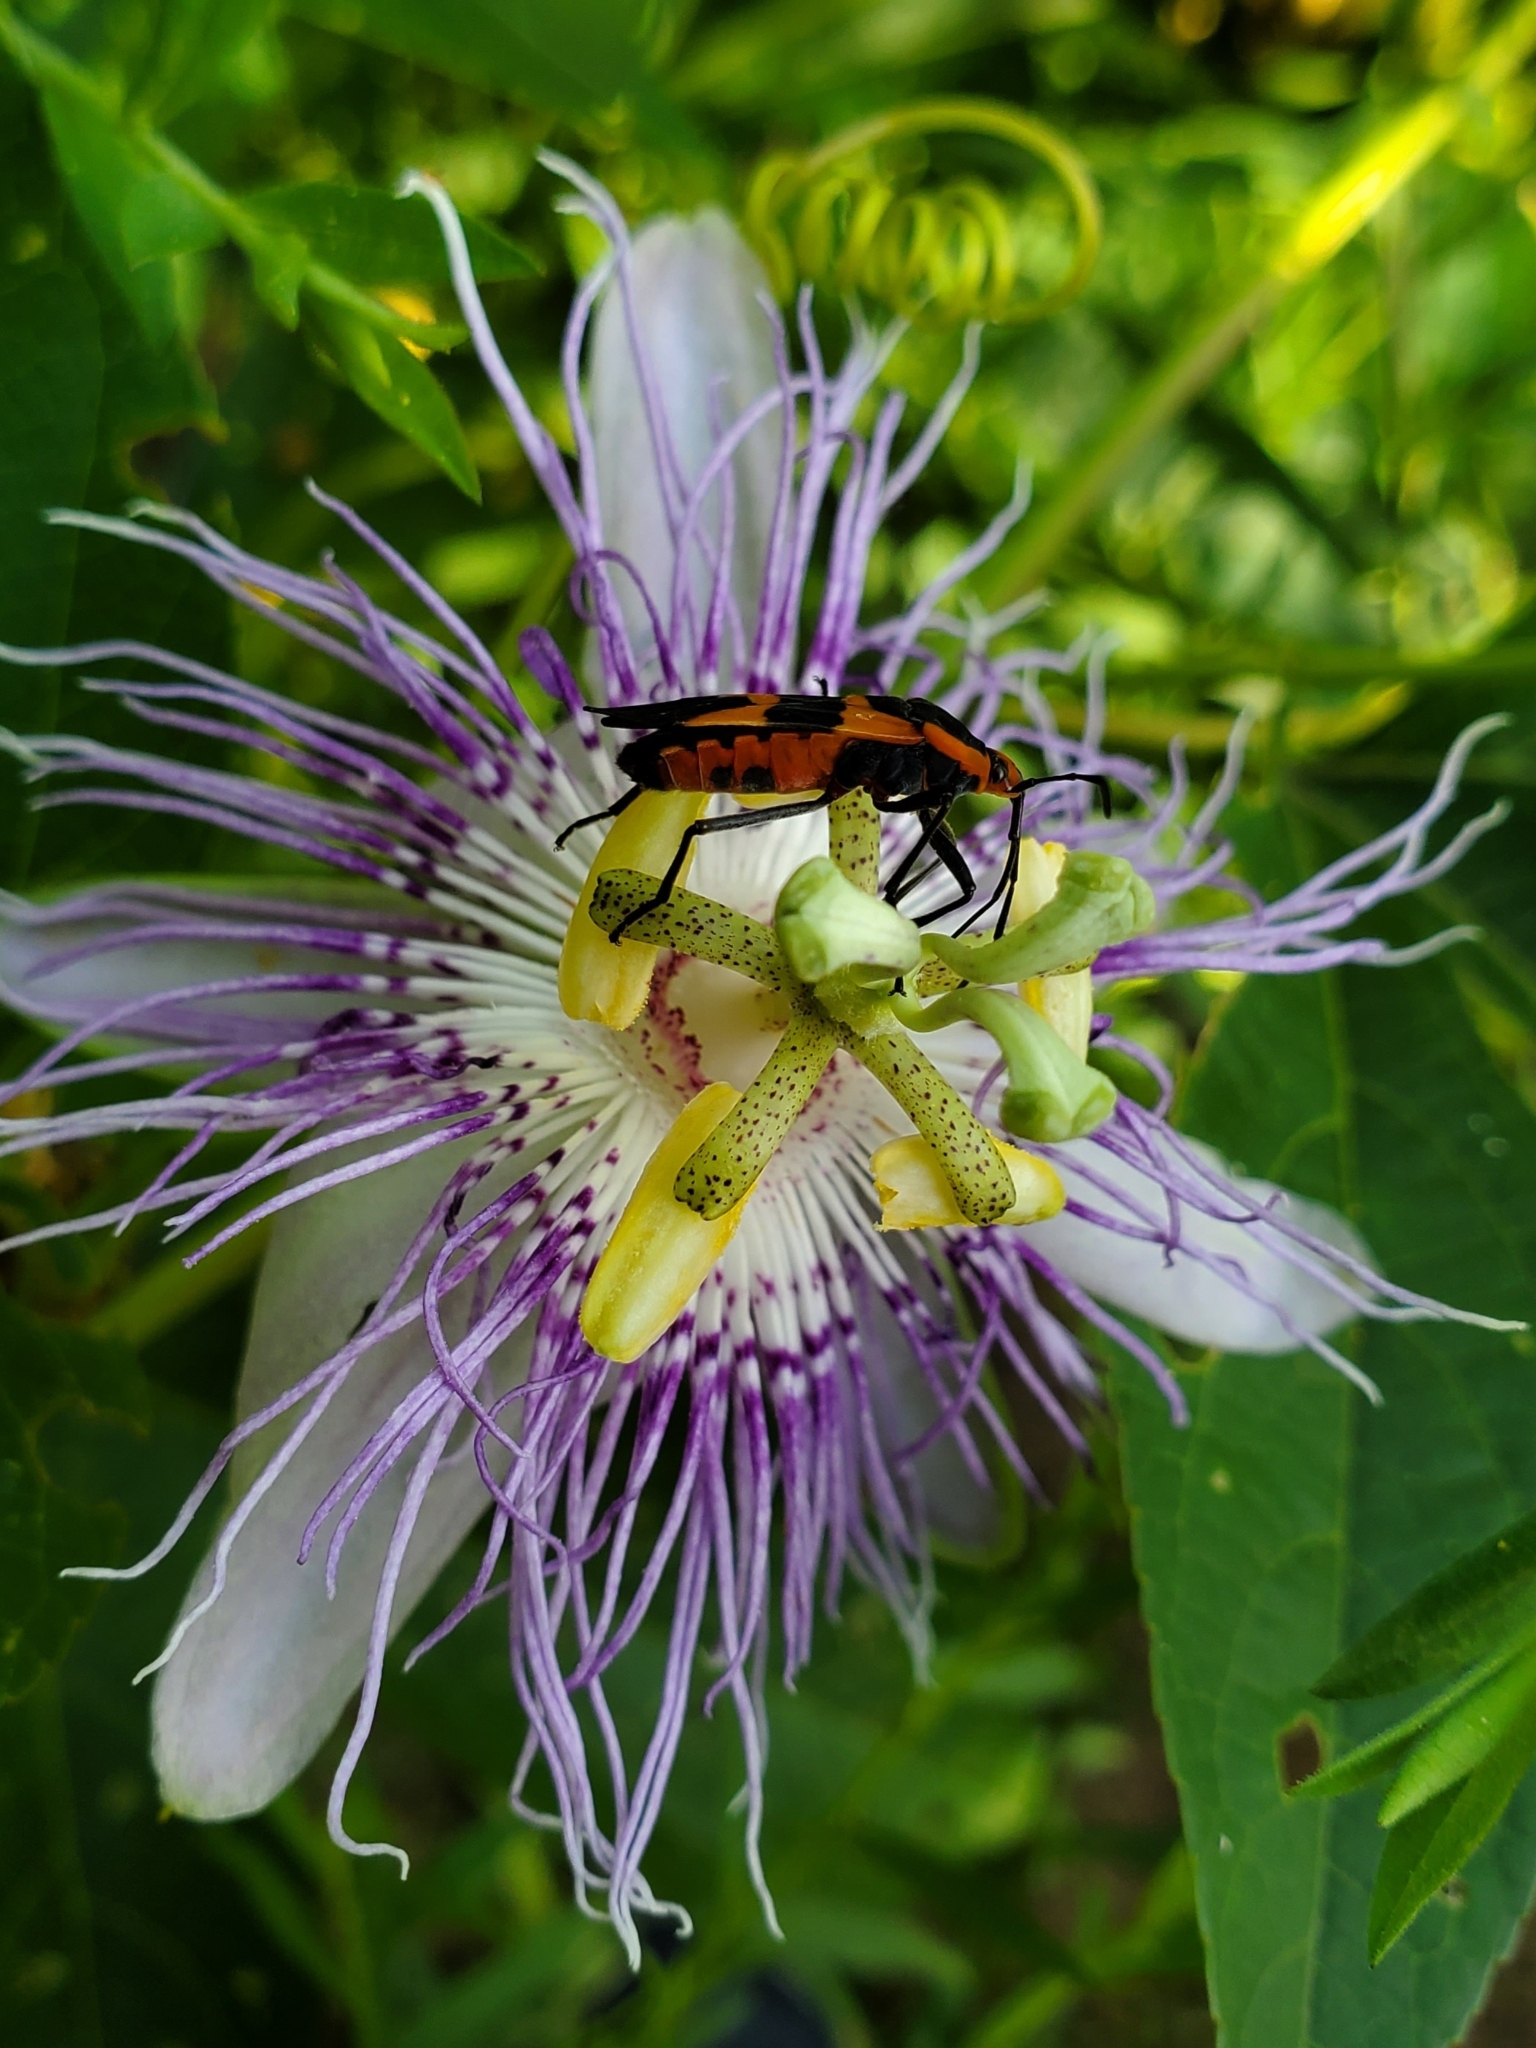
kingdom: Animalia
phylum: Arthropoda
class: Insecta
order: Hemiptera
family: Lygaeidae
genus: Oncopeltus
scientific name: Oncopeltus fasciatus
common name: Large milkweed bug
